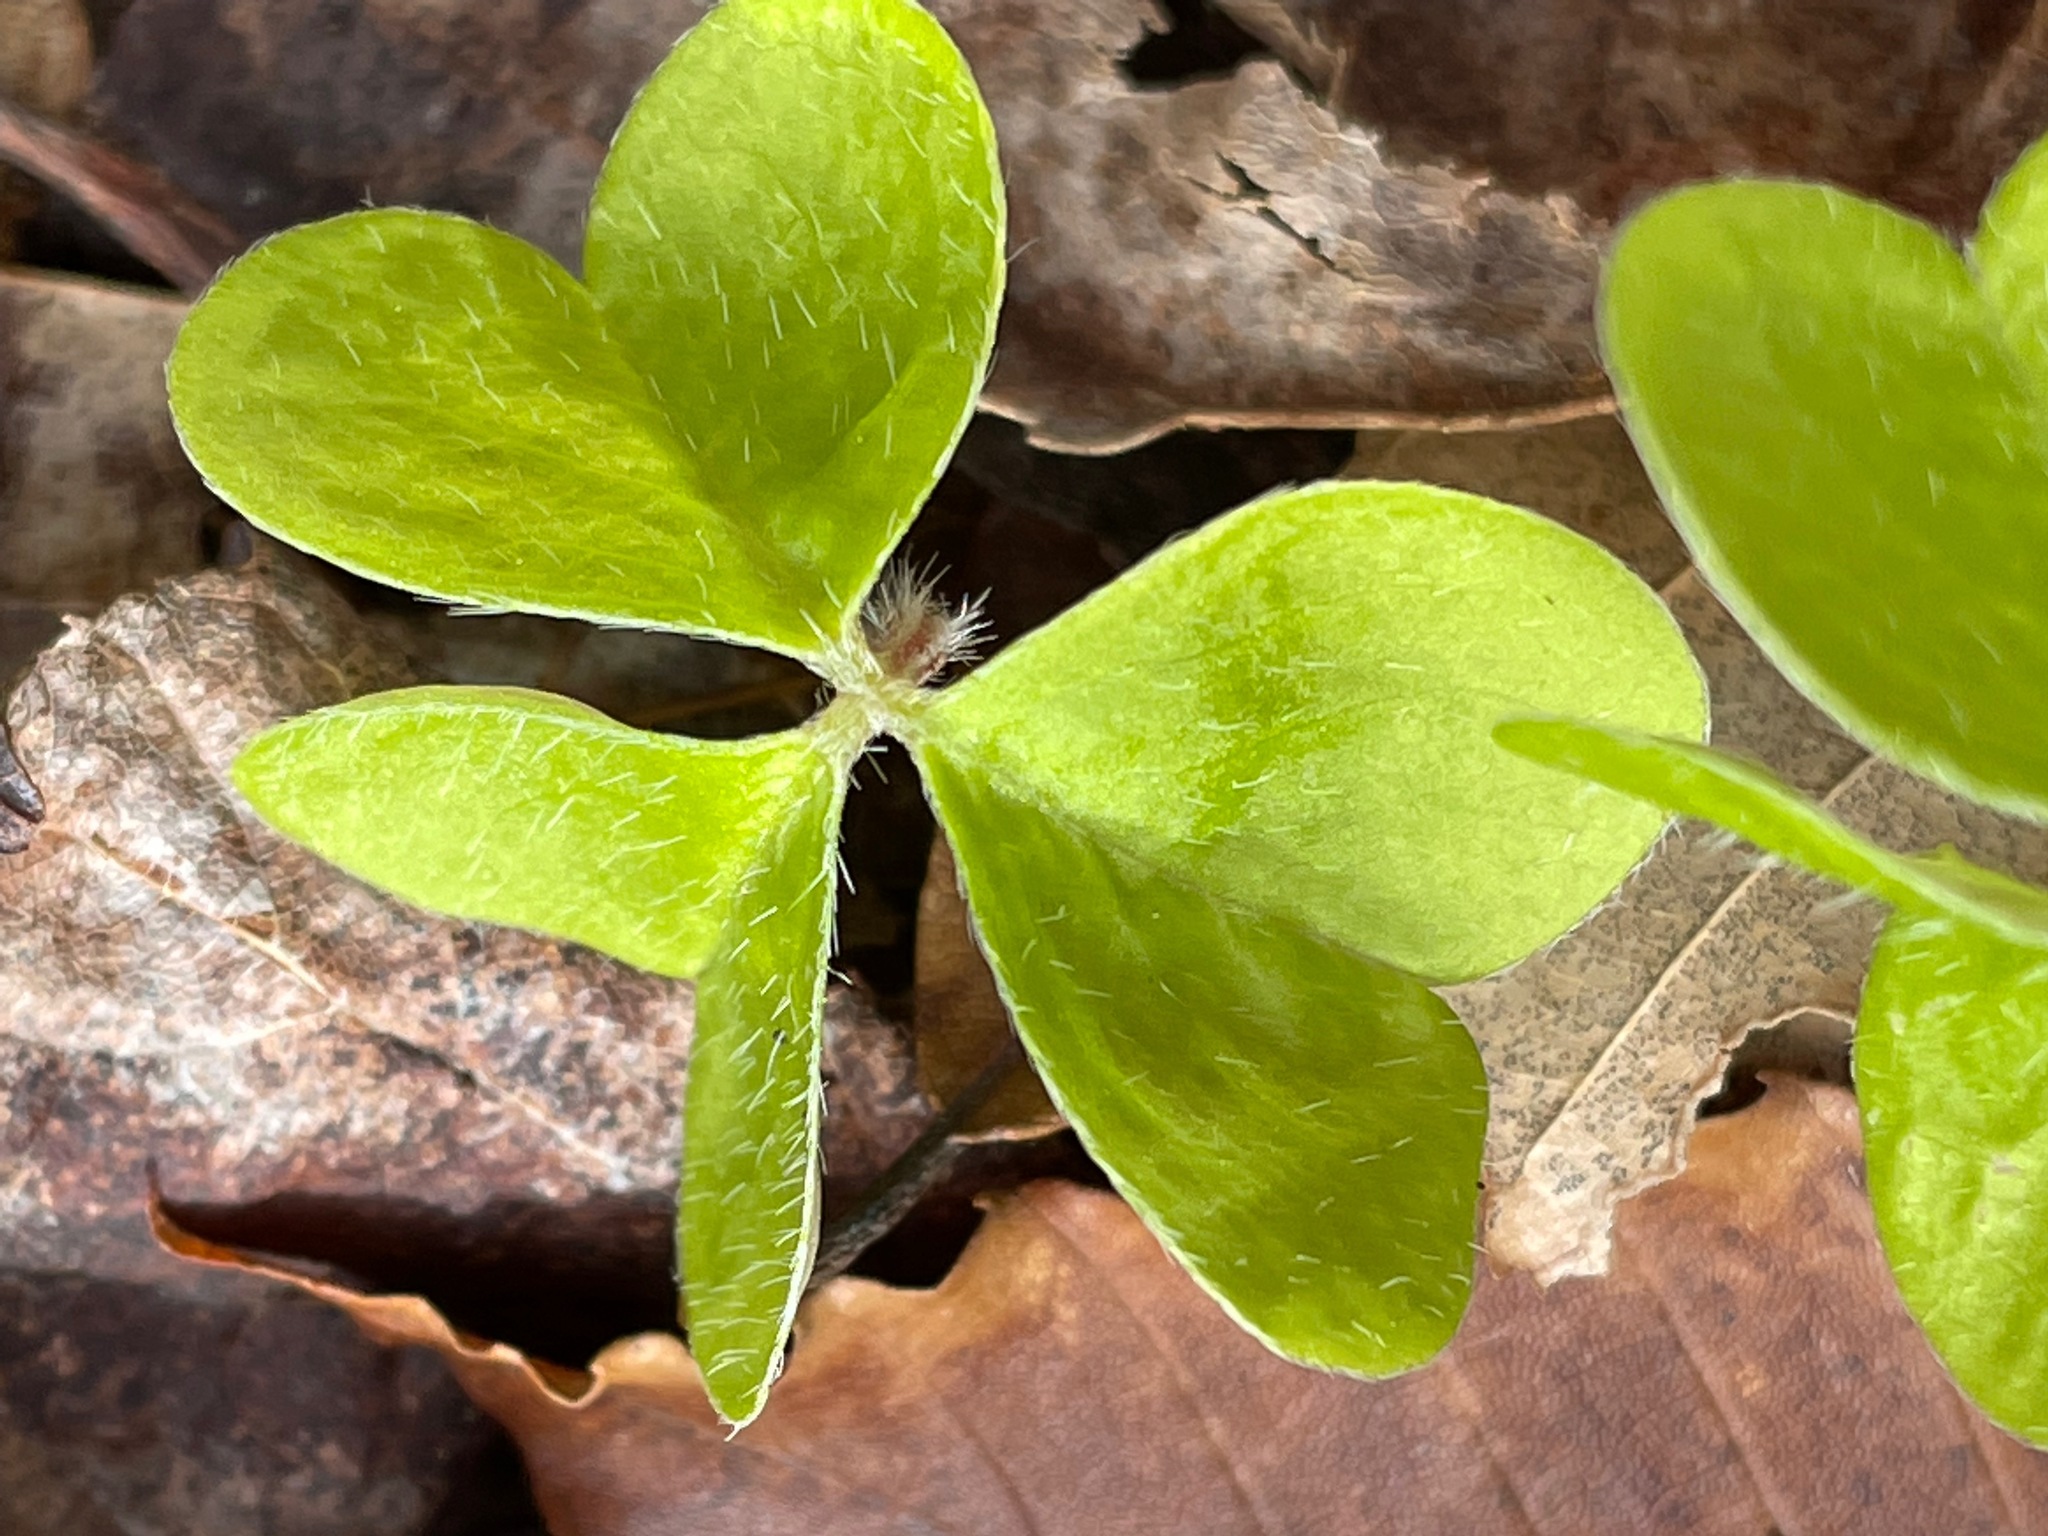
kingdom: Plantae
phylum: Tracheophyta
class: Magnoliopsida
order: Oxalidales
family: Oxalidaceae
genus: Oxalis
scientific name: Oxalis montana
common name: American wood-sorrel
